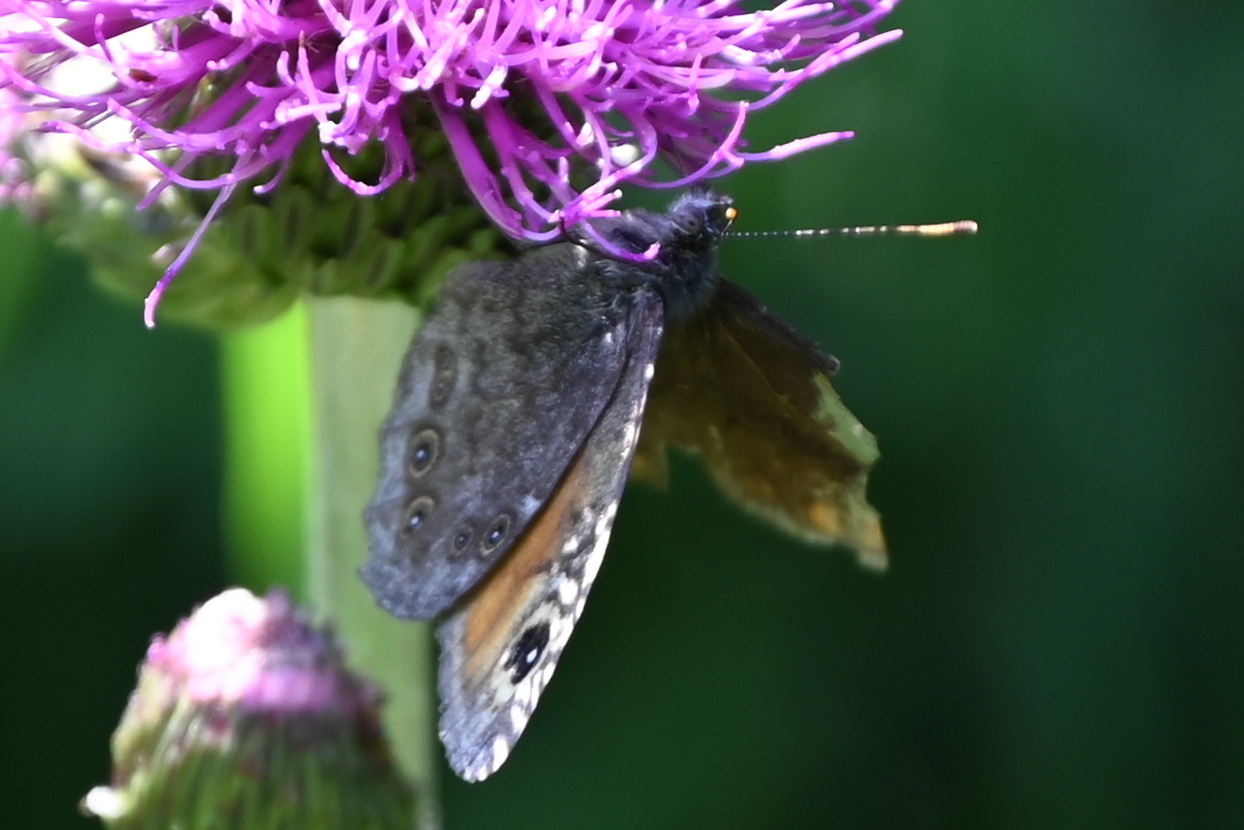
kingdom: Animalia
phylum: Arthropoda
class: Insecta
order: Lepidoptera
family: Nymphalidae
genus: Pararge
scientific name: Pararge Lasiommata maera
